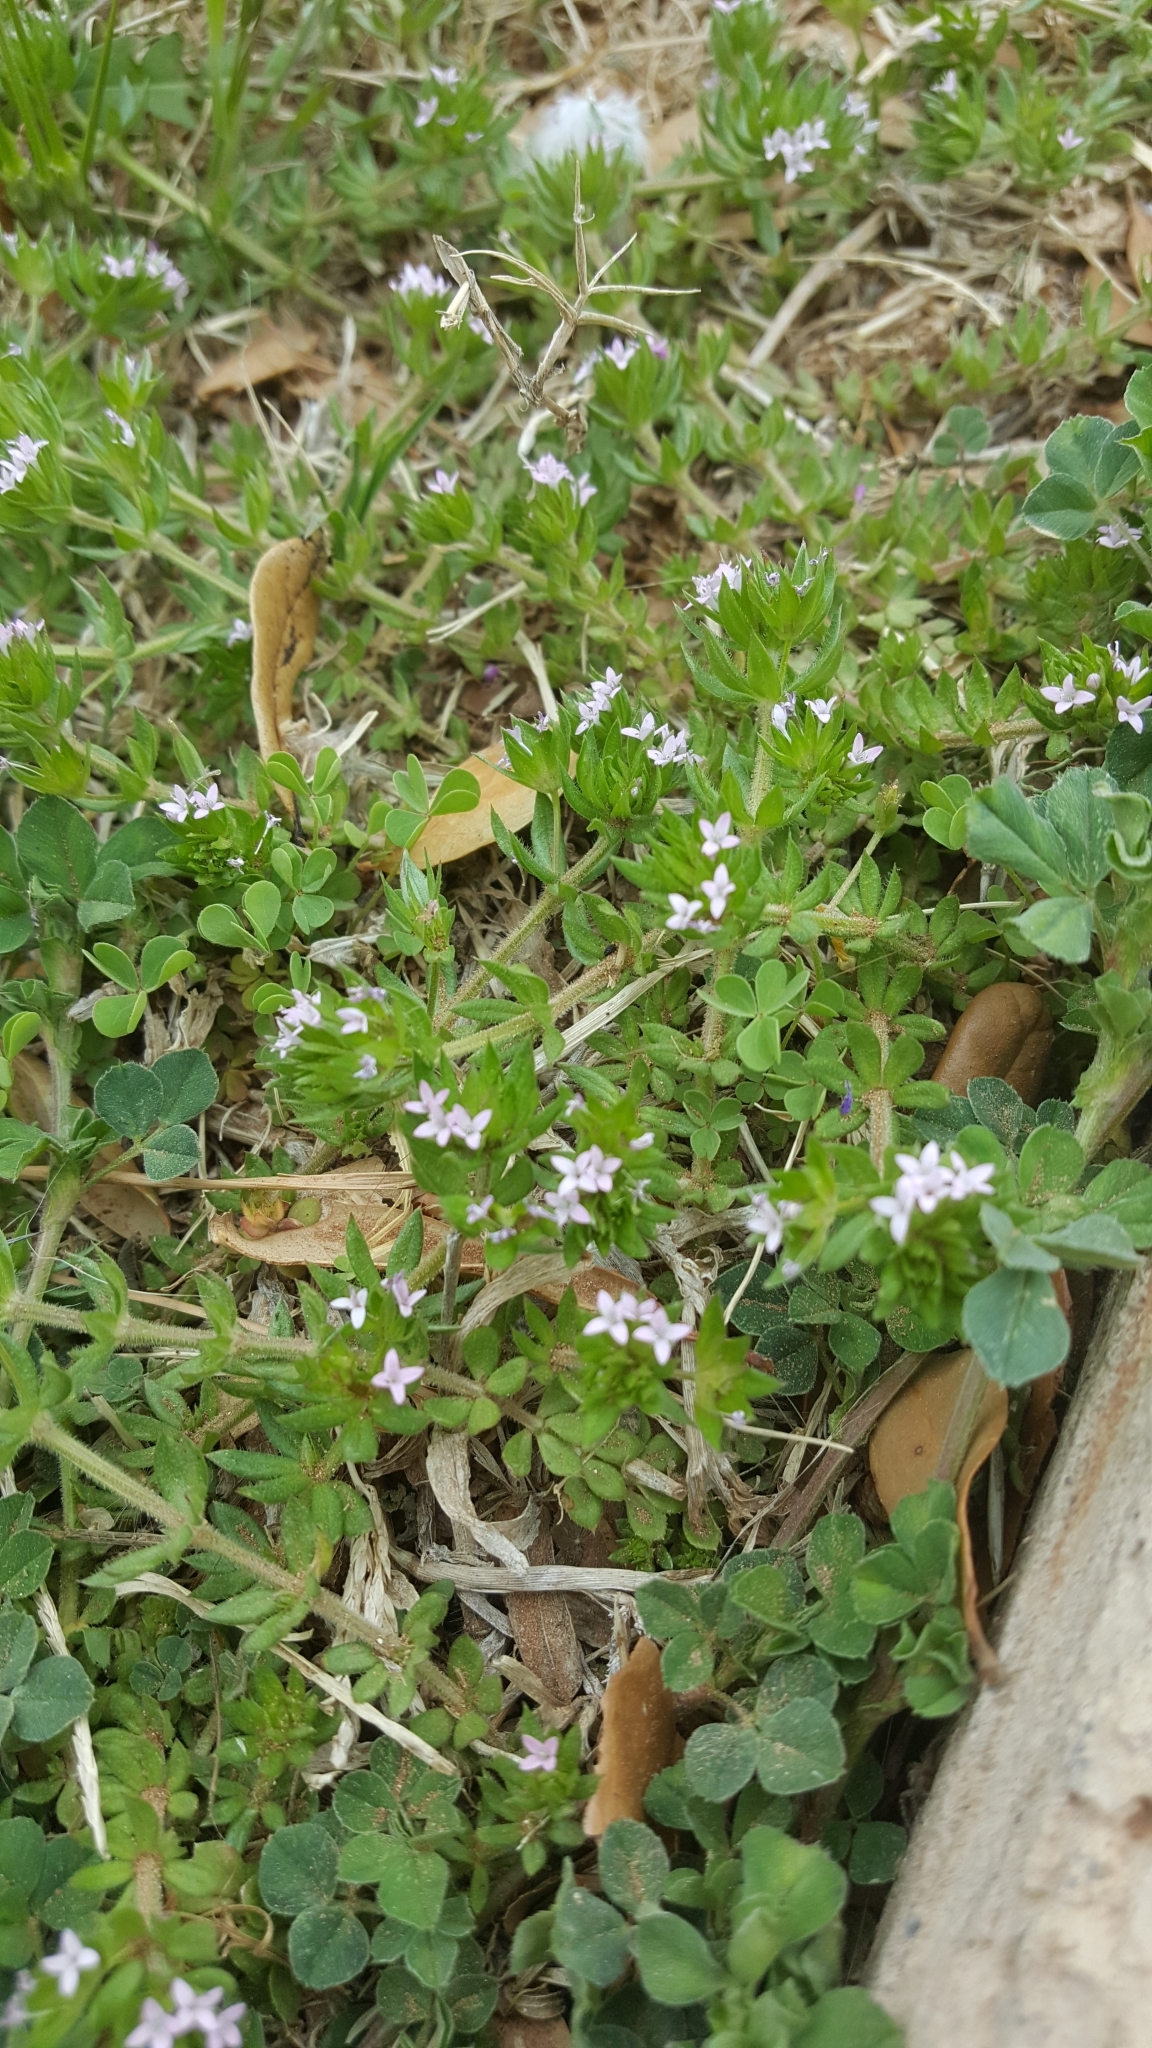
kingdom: Plantae
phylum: Tracheophyta
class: Magnoliopsida
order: Gentianales
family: Rubiaceae
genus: Sherardia
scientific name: Sherardia arvensis
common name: Field madder
